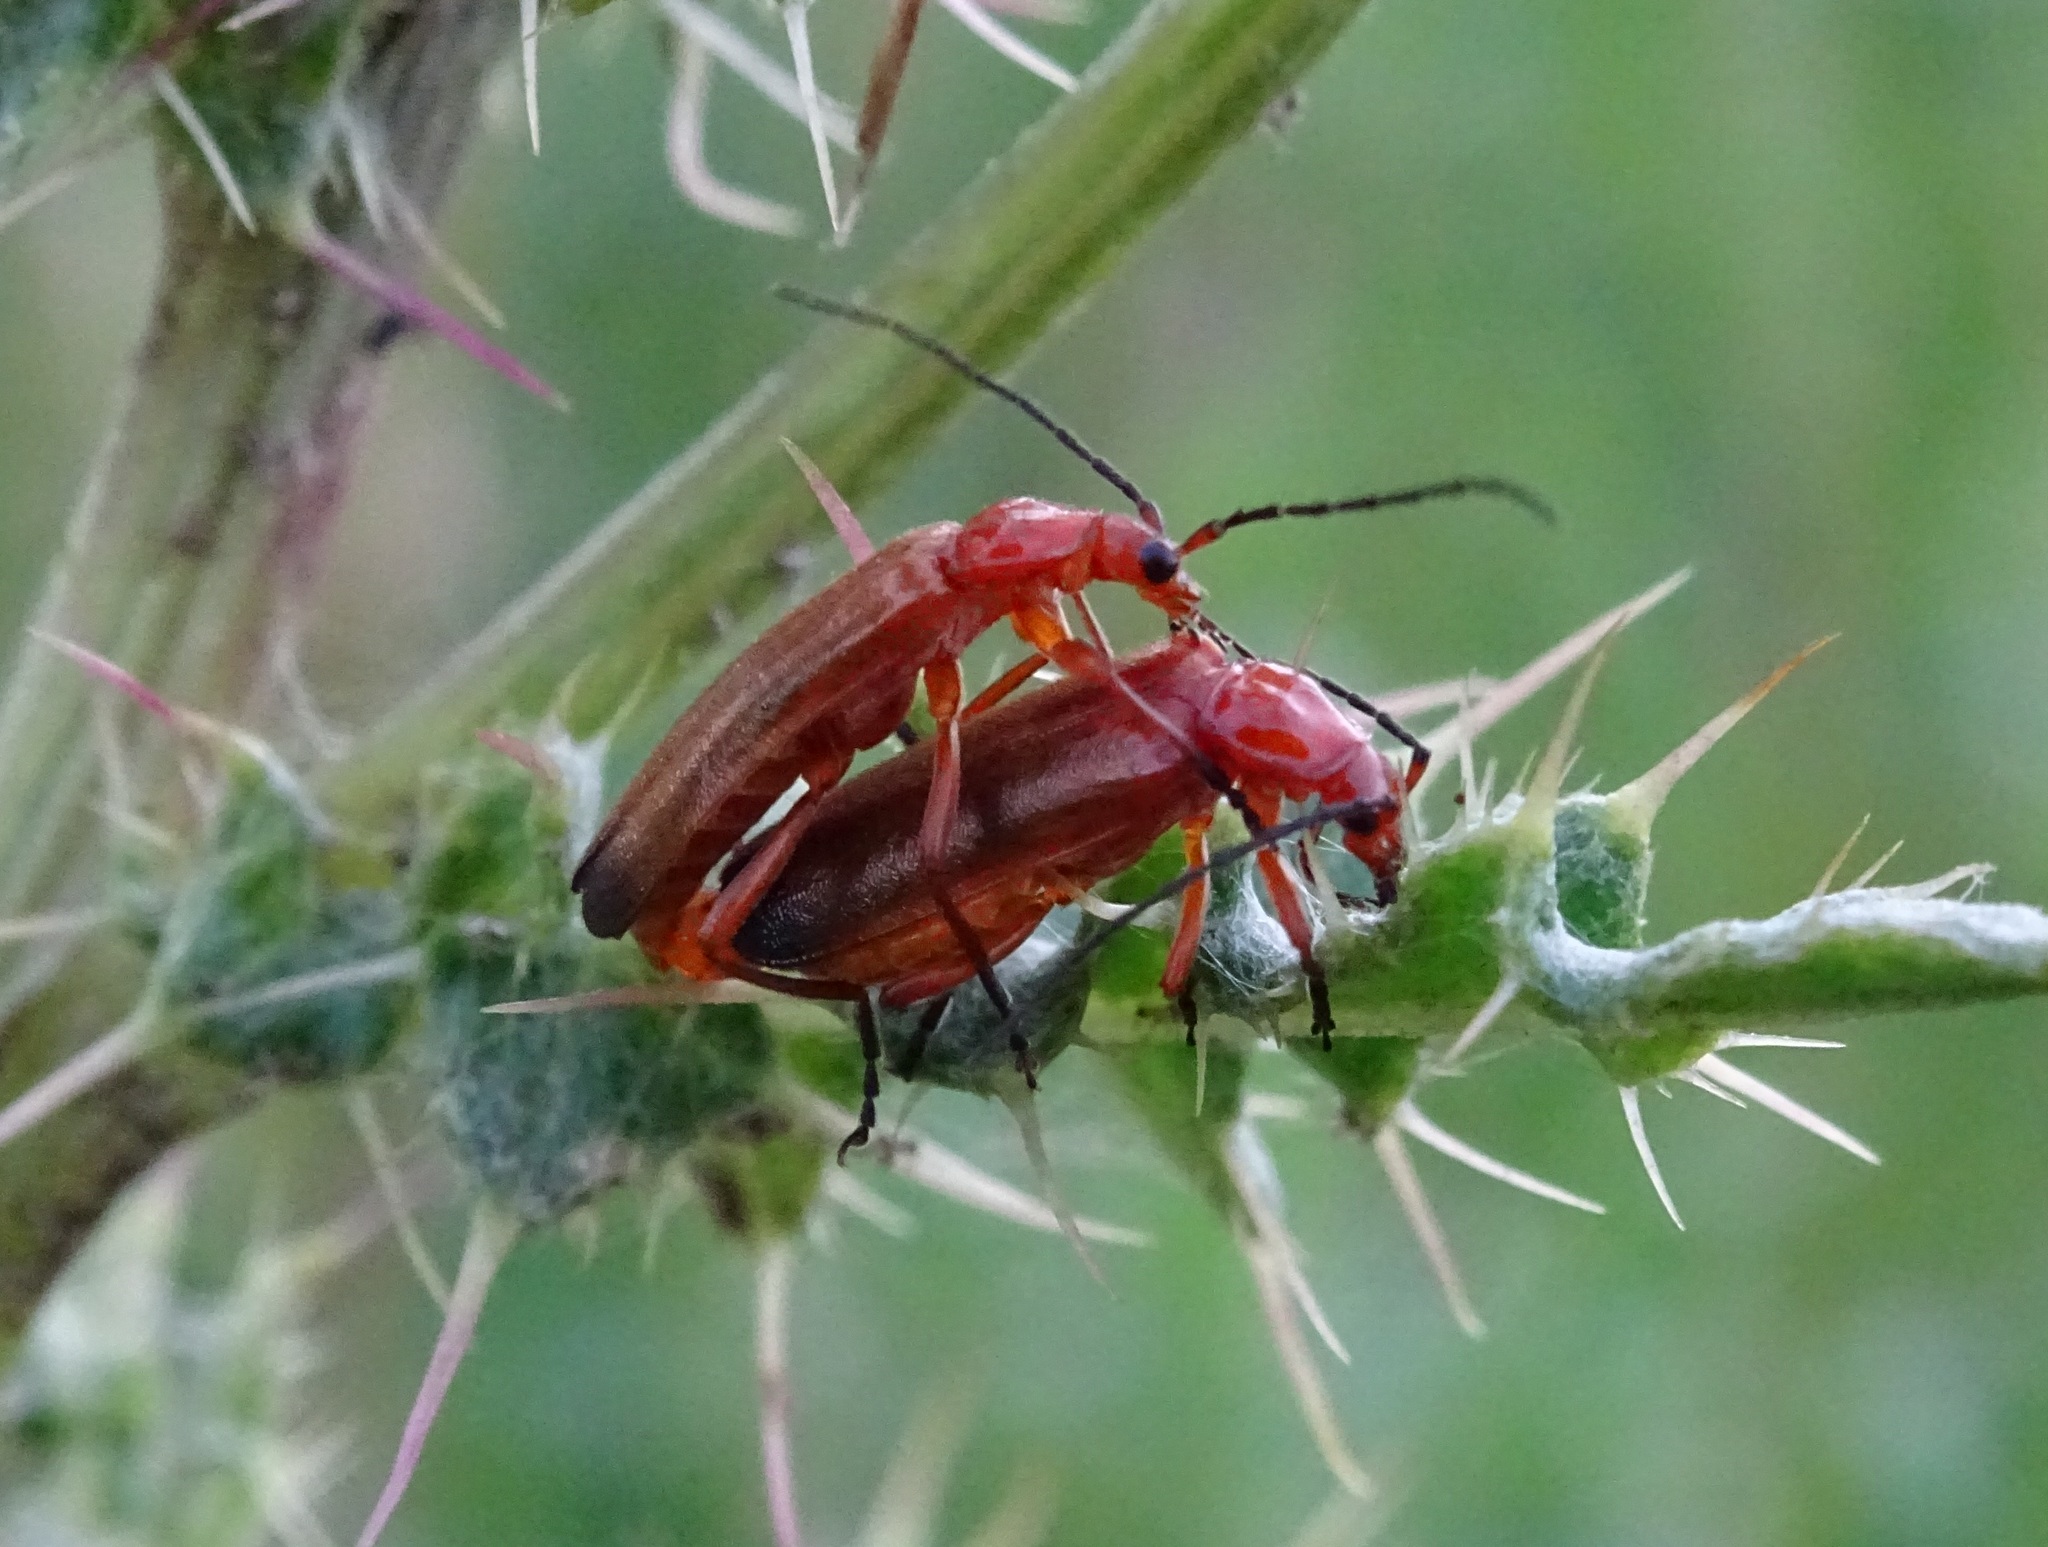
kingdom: Animalia
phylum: Arthropoda
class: Insecta
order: Coleoptera
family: Cantharidae
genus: Rhagonycha
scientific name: Rhagonycha fulva
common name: Common red soldier beetle
